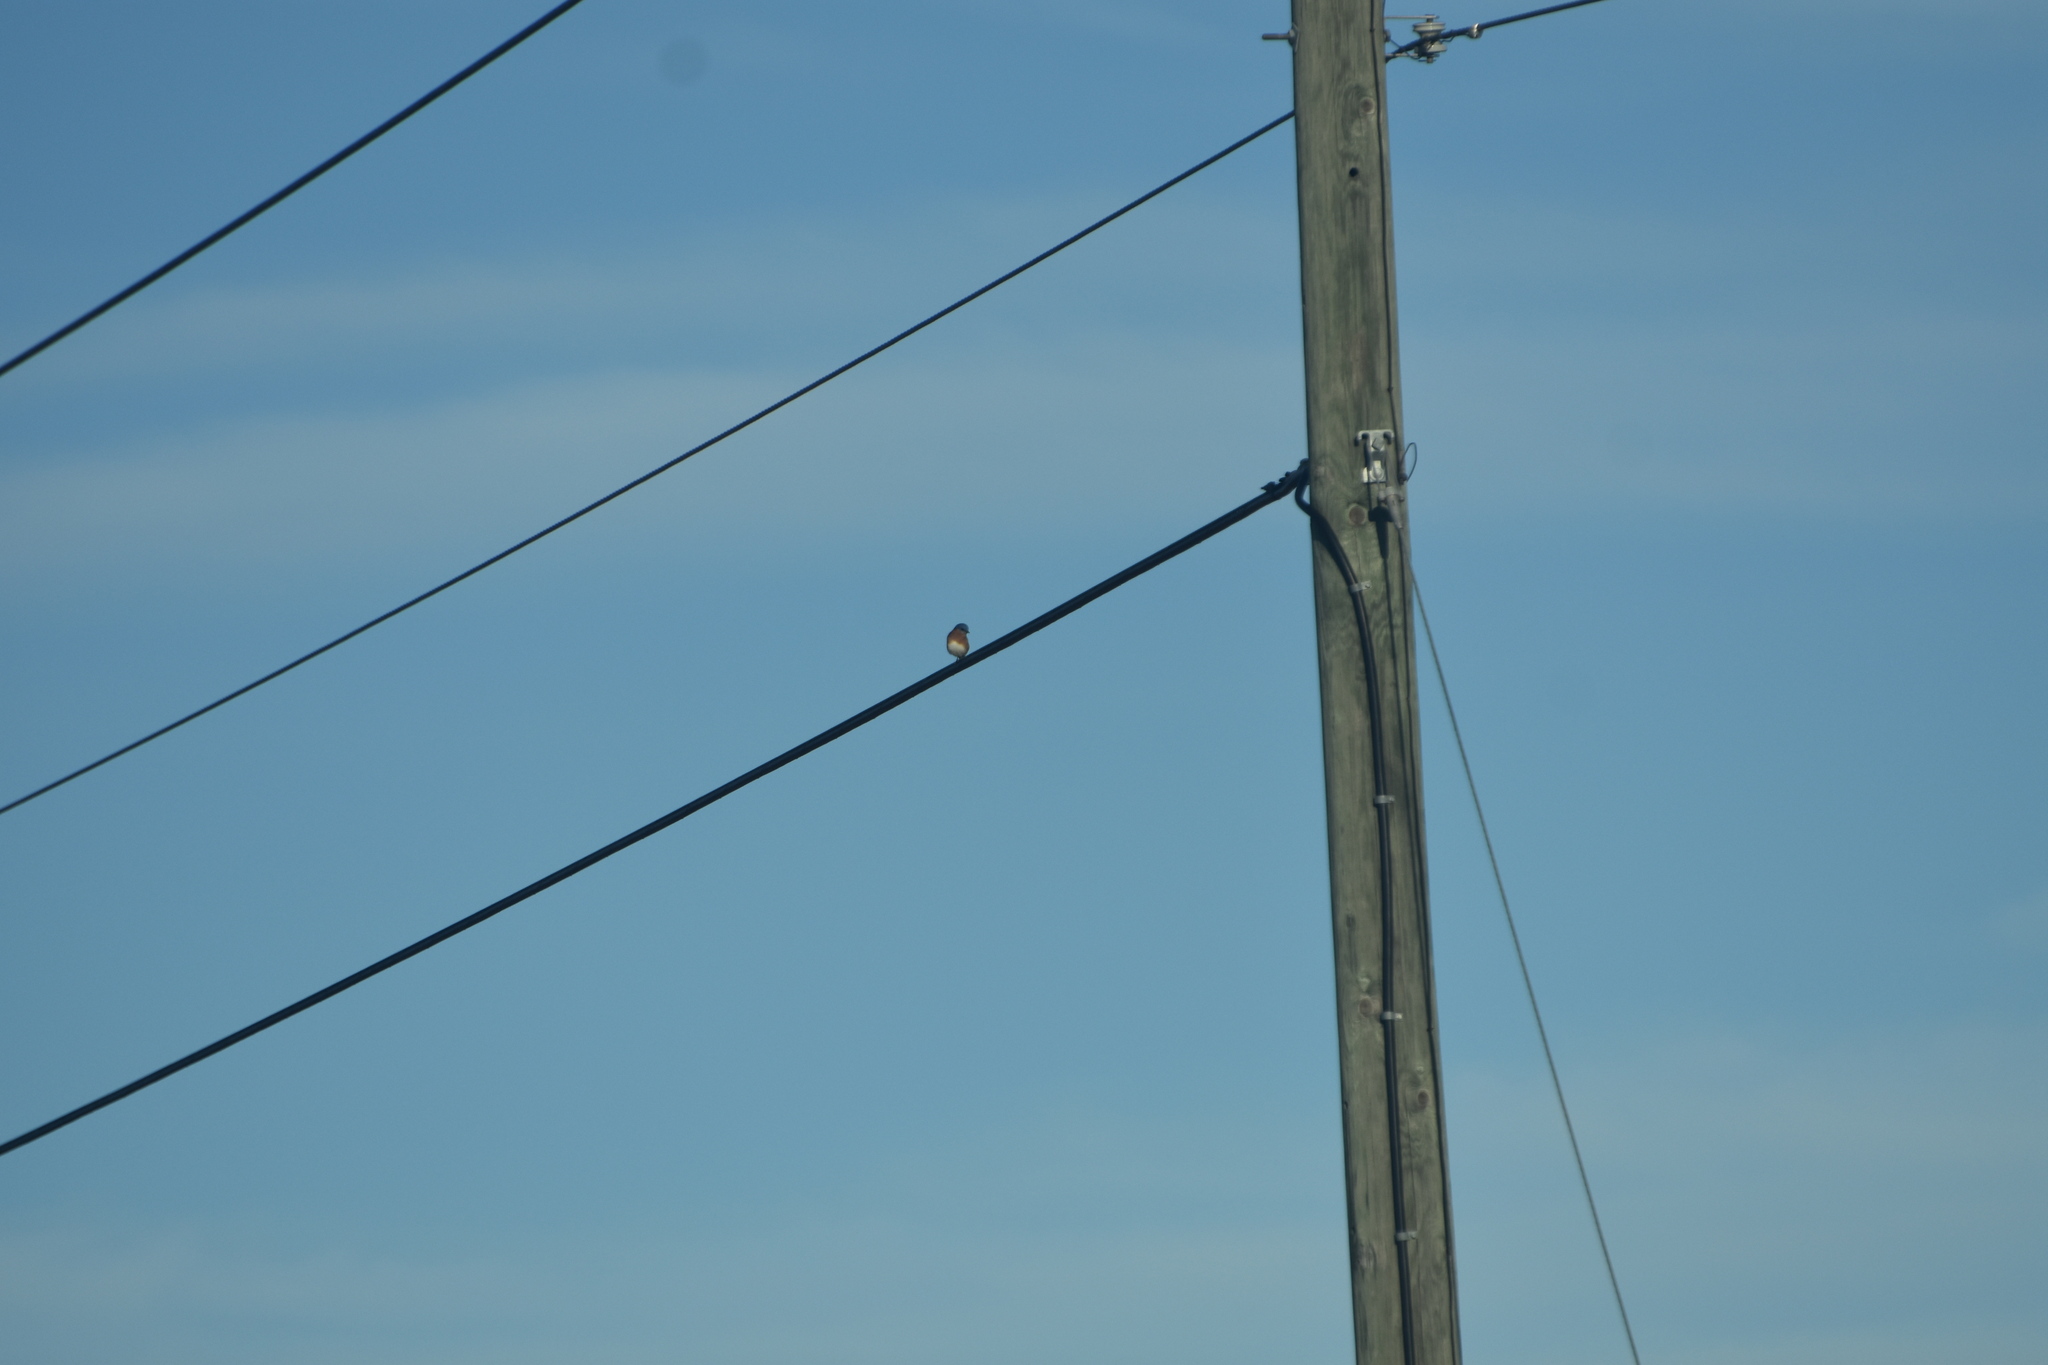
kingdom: Animalia
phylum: Chordata
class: Aves
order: Passeriformes
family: Turdidae
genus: Sialia
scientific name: Sialia sialis
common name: Eastern bluebird
